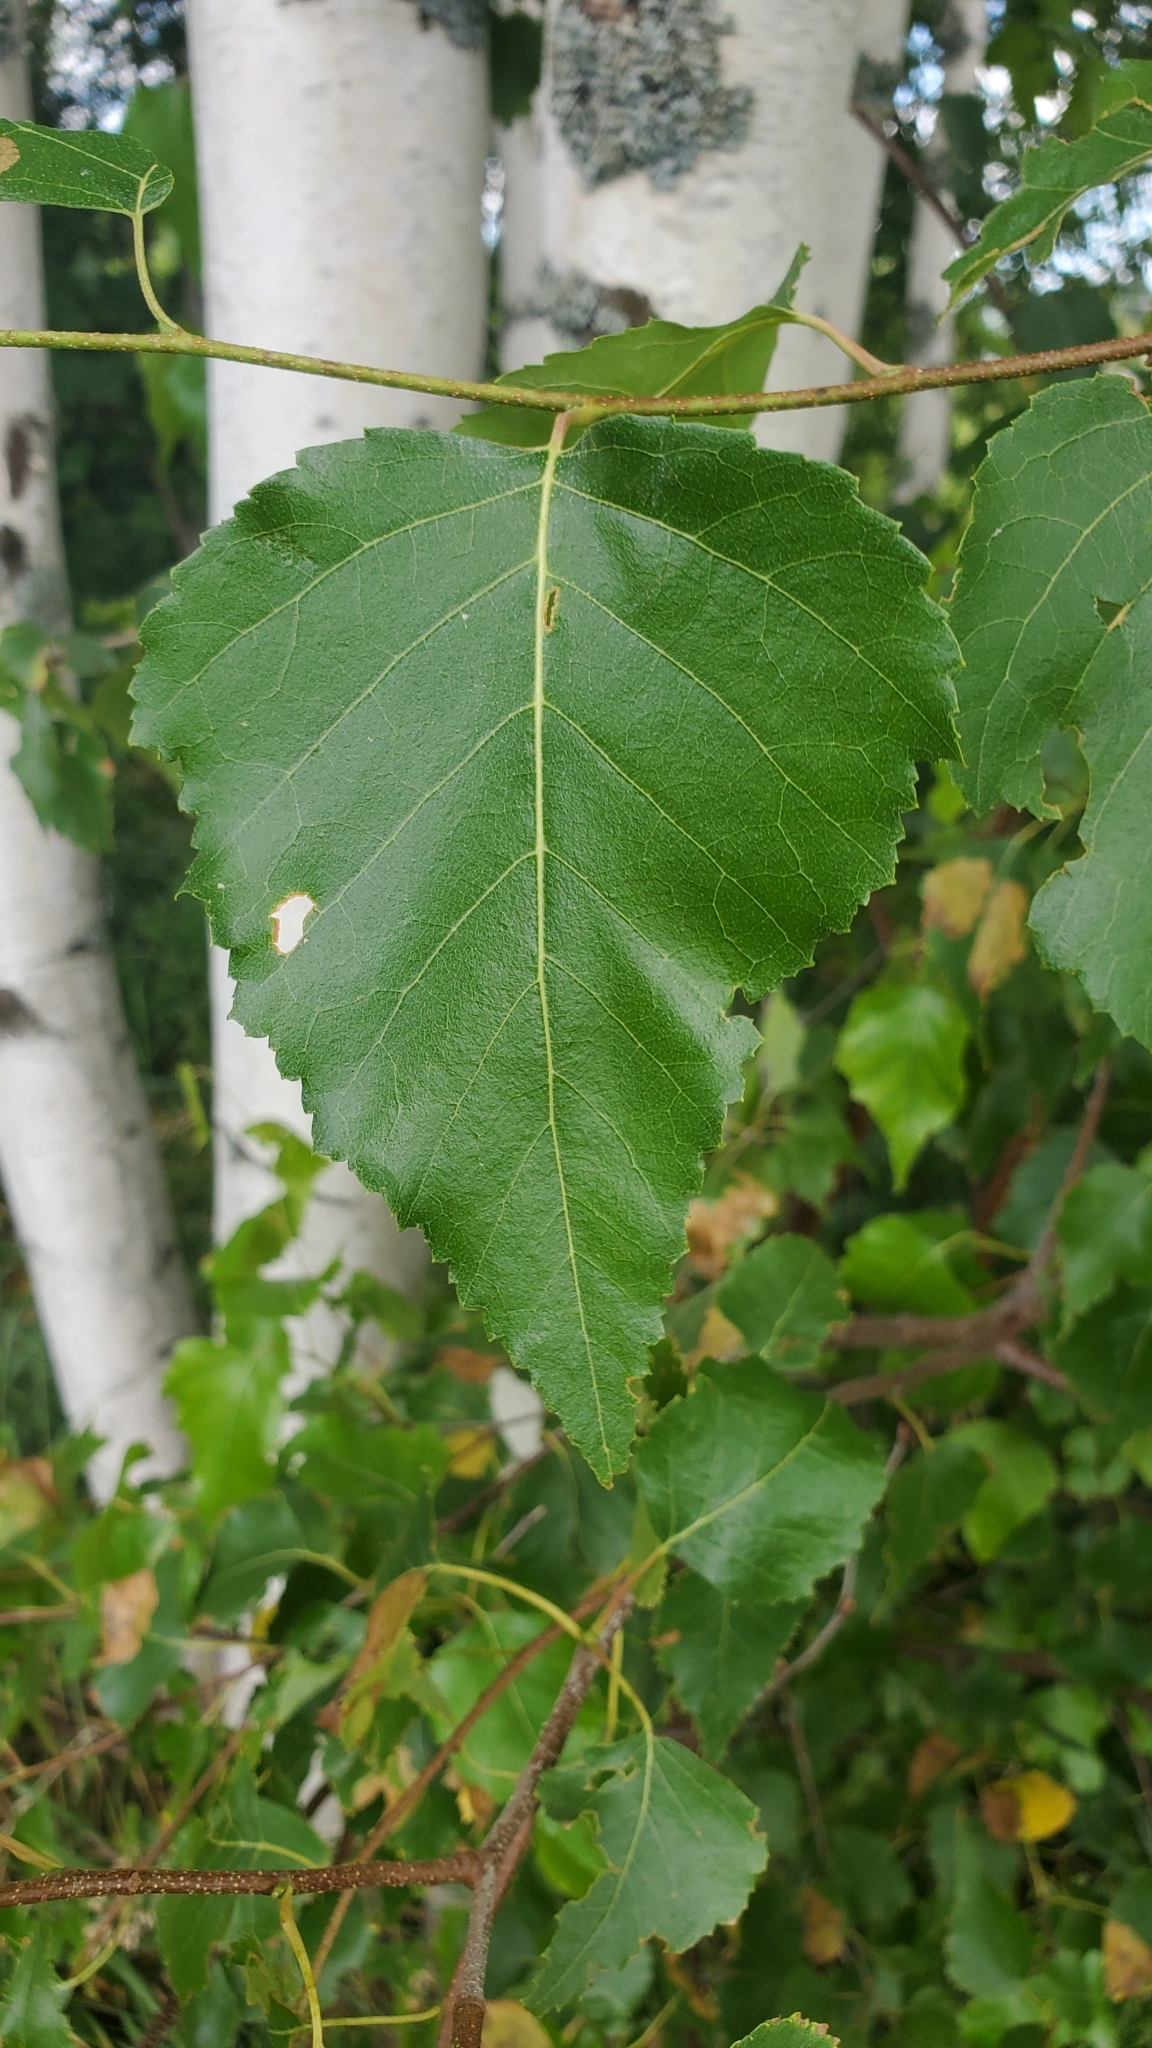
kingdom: Plantae
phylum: Tracheophyta
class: Magnoliopsida
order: Fagales
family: Betulaceae
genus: Betula
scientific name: Betula populifolia
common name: Fire birch
